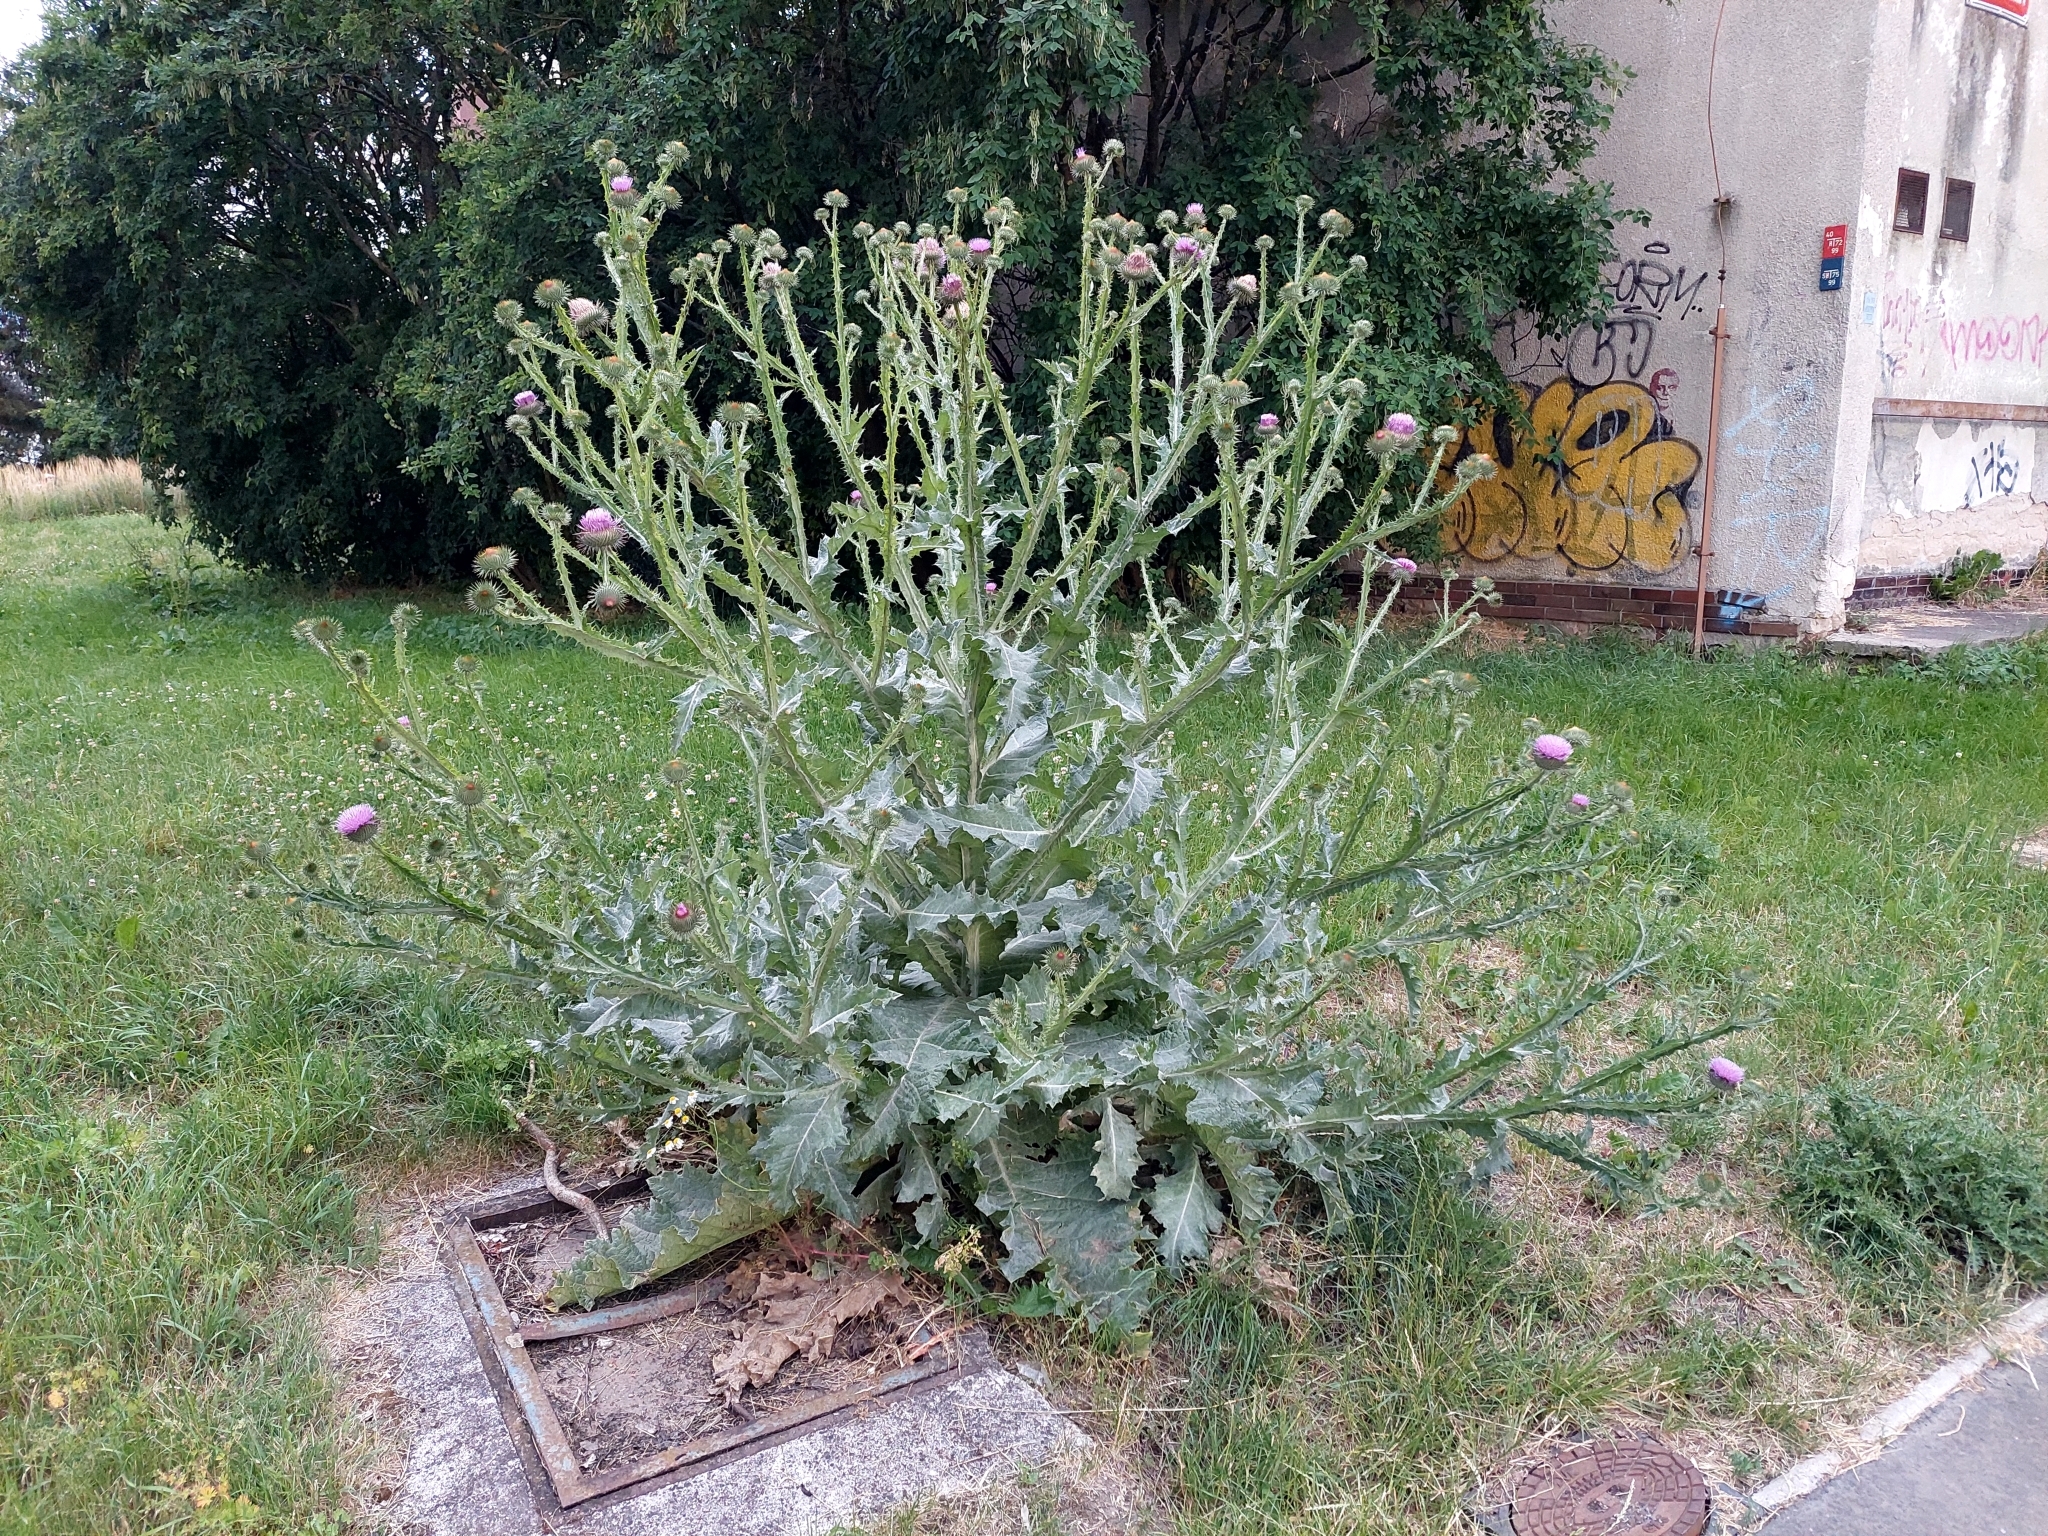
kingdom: Plantae
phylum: Tracheophyta
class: Magnoliopsida
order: Asterales
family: Asteraceae
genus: Onopordum
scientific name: Onopordum acanthium
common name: Scotch thistle
